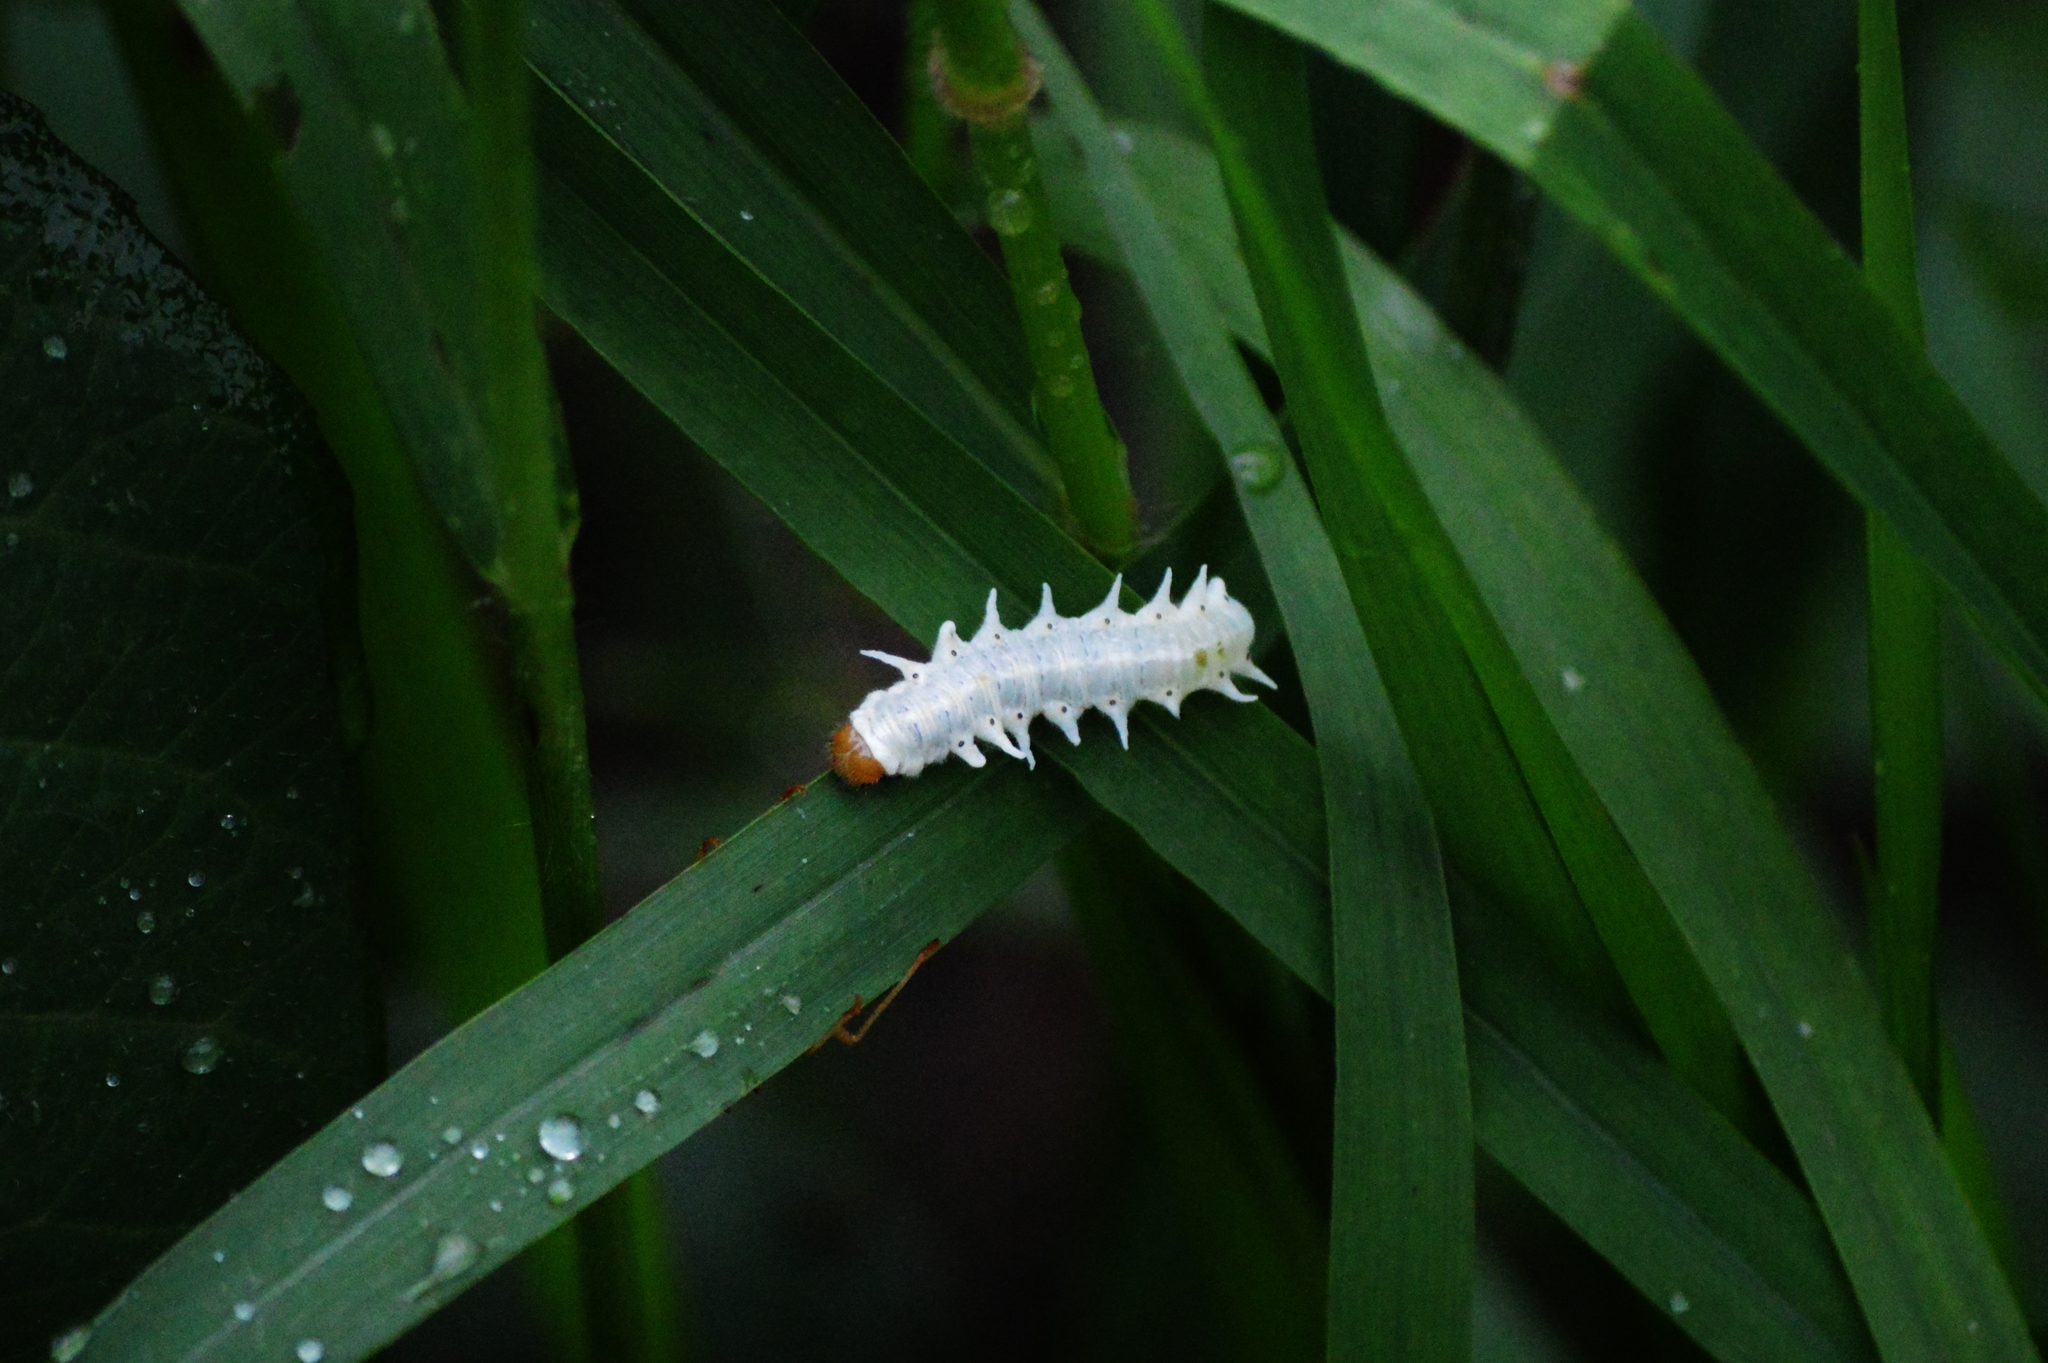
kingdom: Animalia
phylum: Arthropoda
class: Insecta
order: Lepidoptera
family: Nymphalidae
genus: Mechanitis
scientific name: Mechanitis polymnia
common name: Disturbed tigerwing
